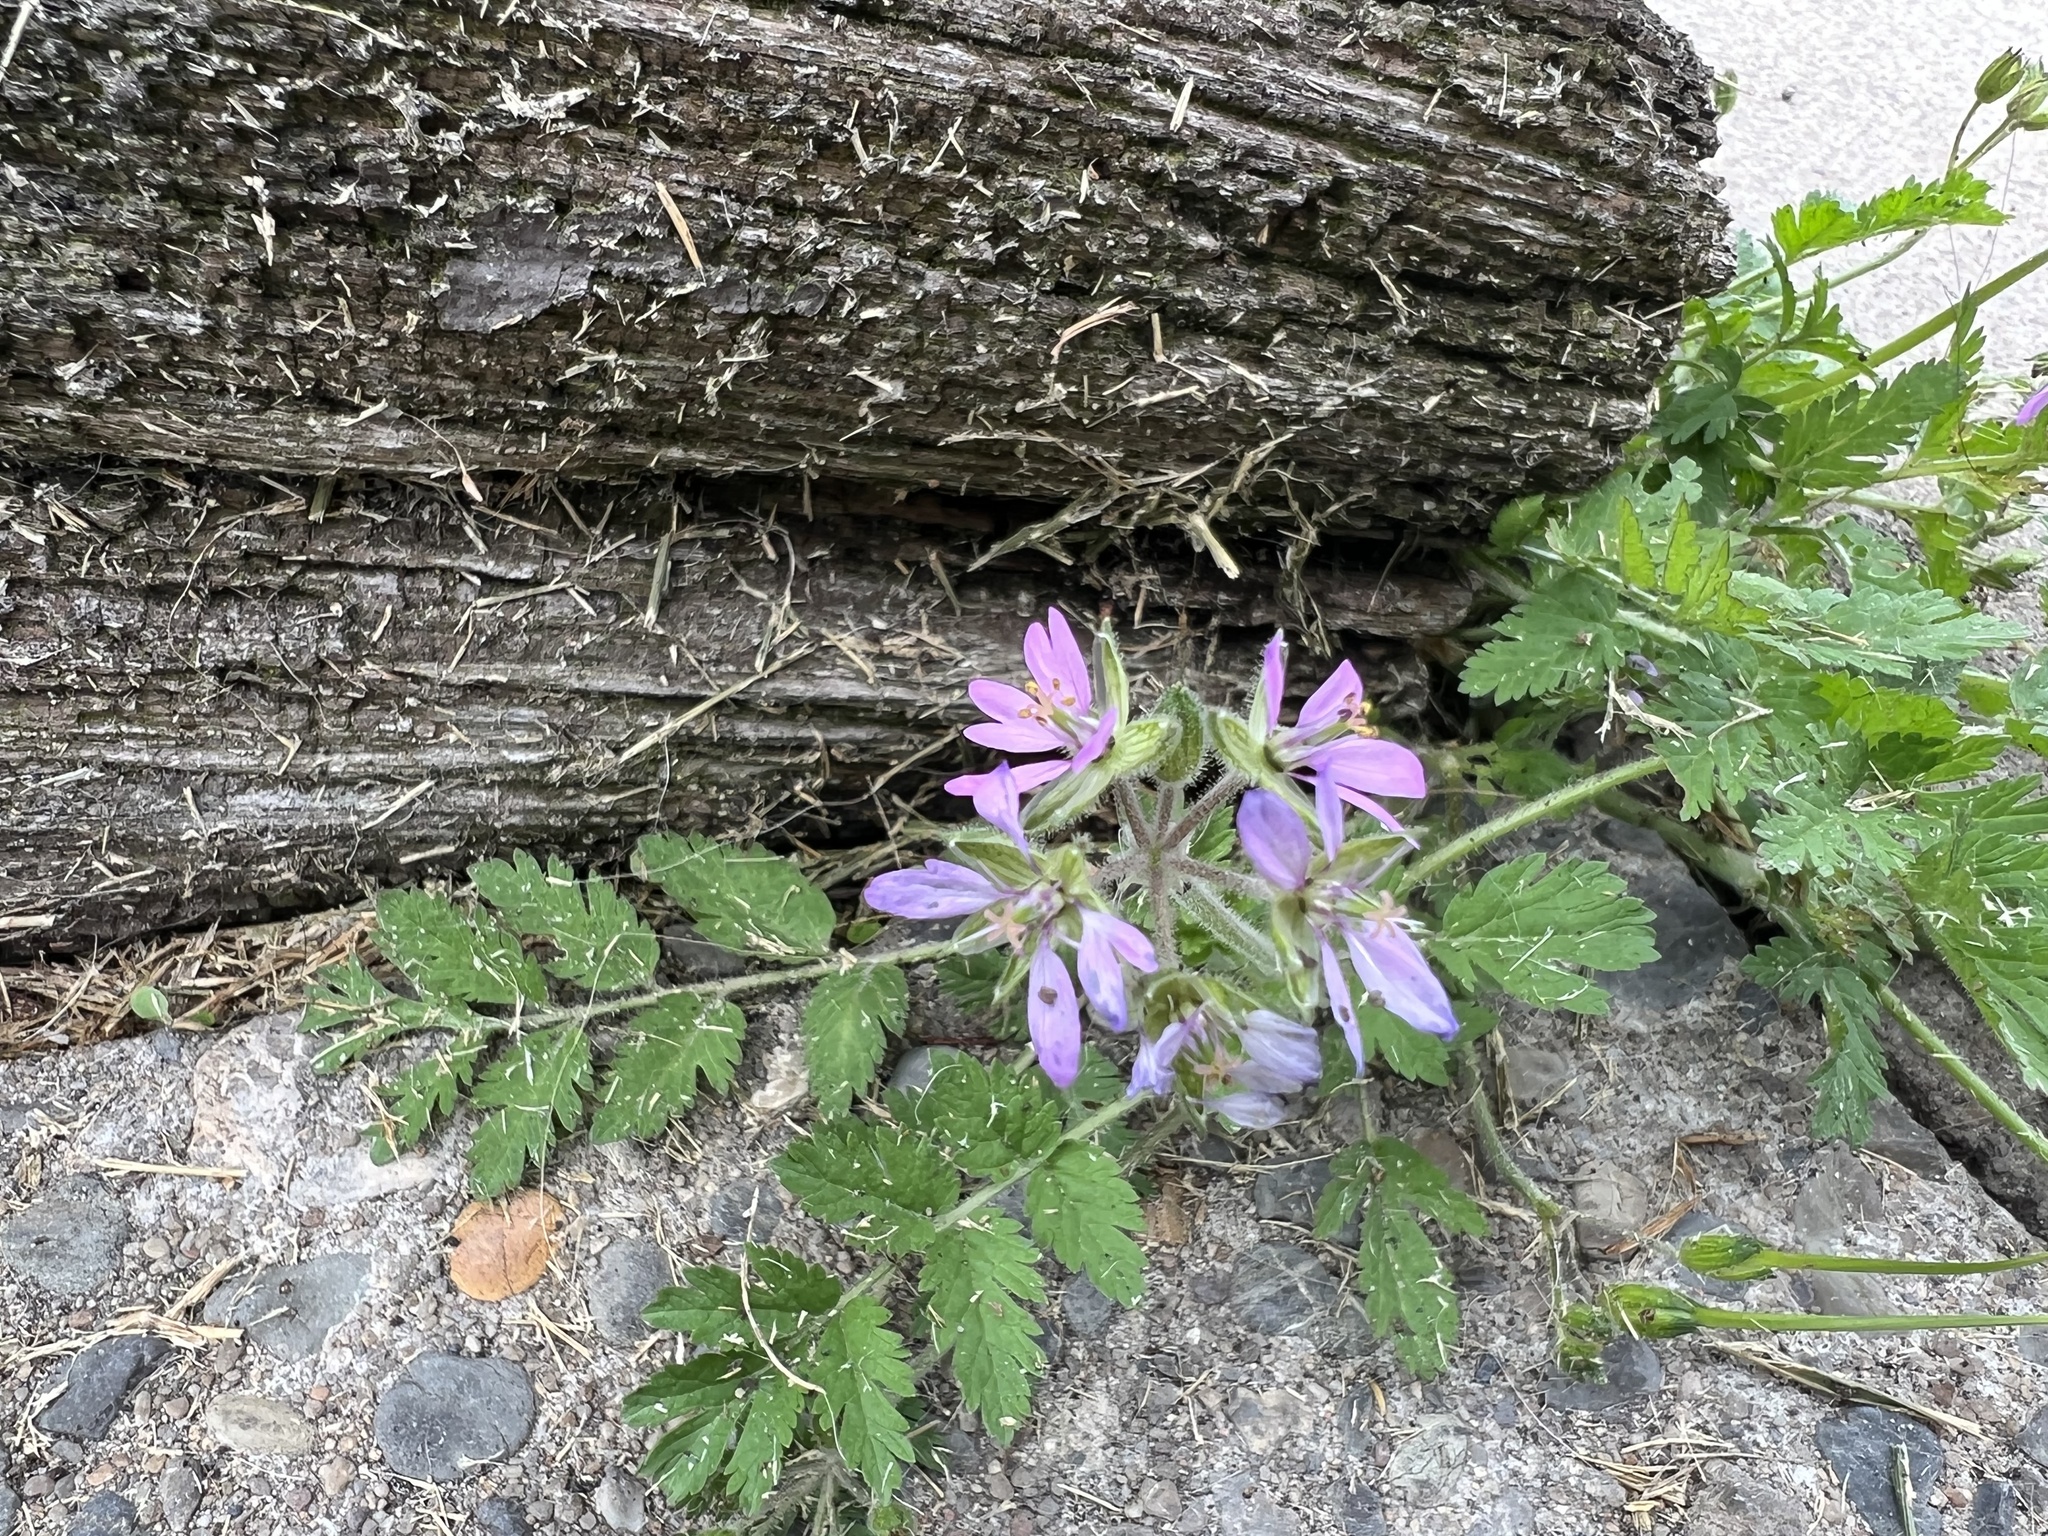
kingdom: Plantae
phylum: Tracheophyta
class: Magnoliopsida
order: Geraniales
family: Geraniaceae
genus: Erodium
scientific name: Erodium moschatum
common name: Musk stork's-bill
